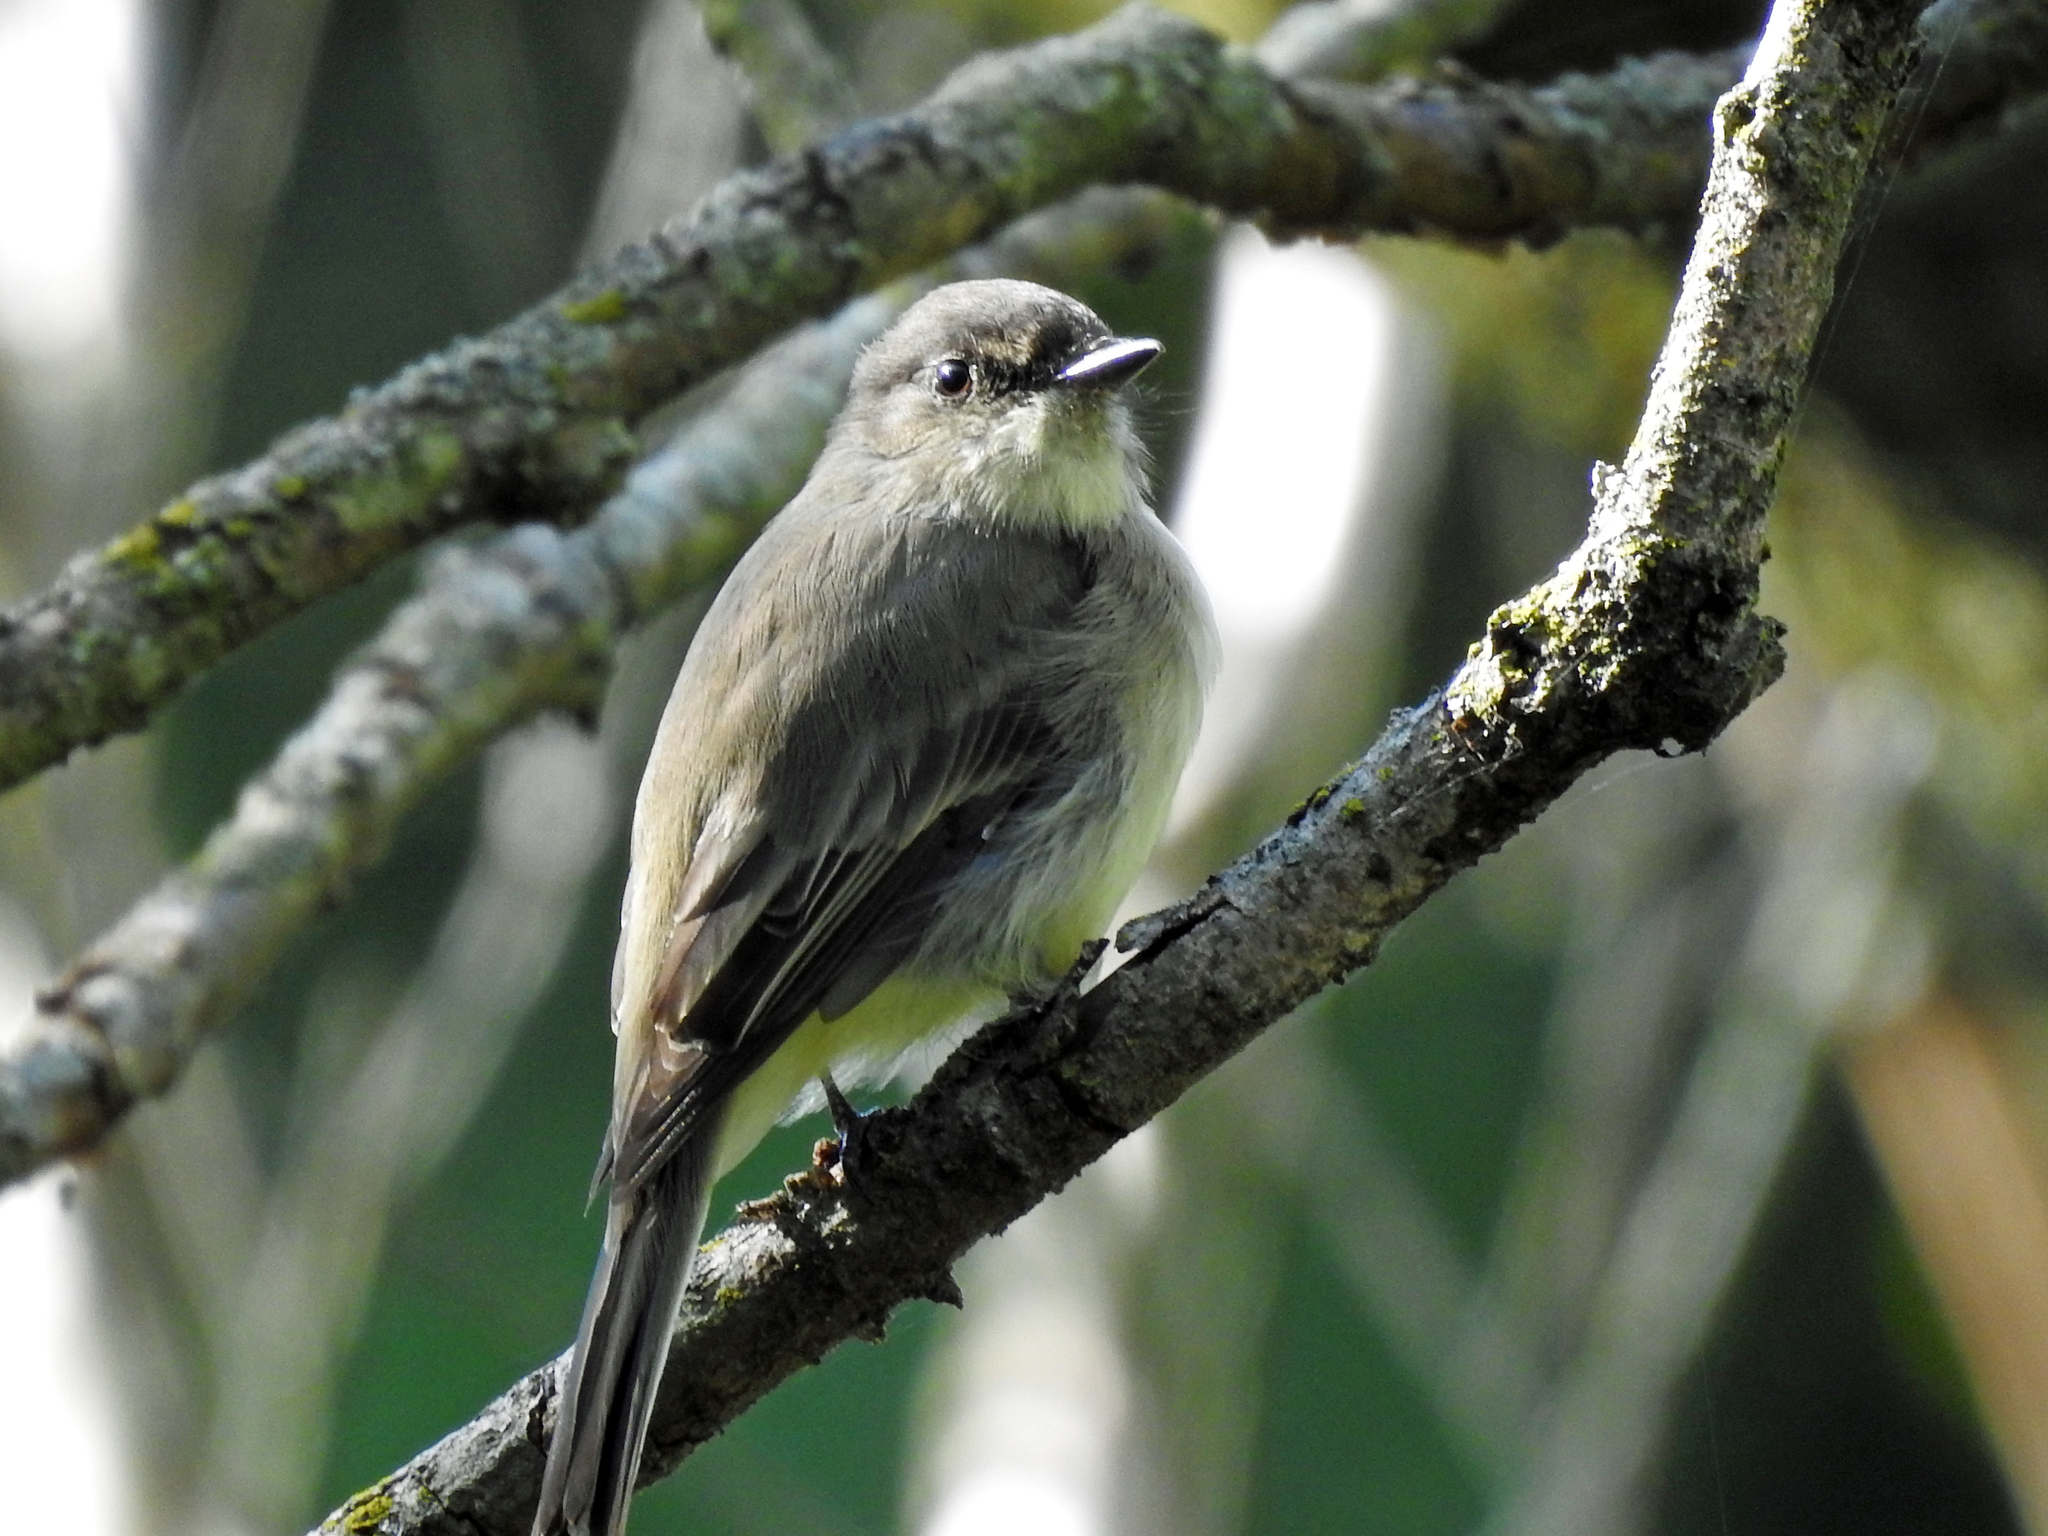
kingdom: Animalia
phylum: Chordata
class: Aves
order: Passeriformes
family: Tyrannidae
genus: Sayornis
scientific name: Sayornis phoebe
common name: Eastern phoebe
